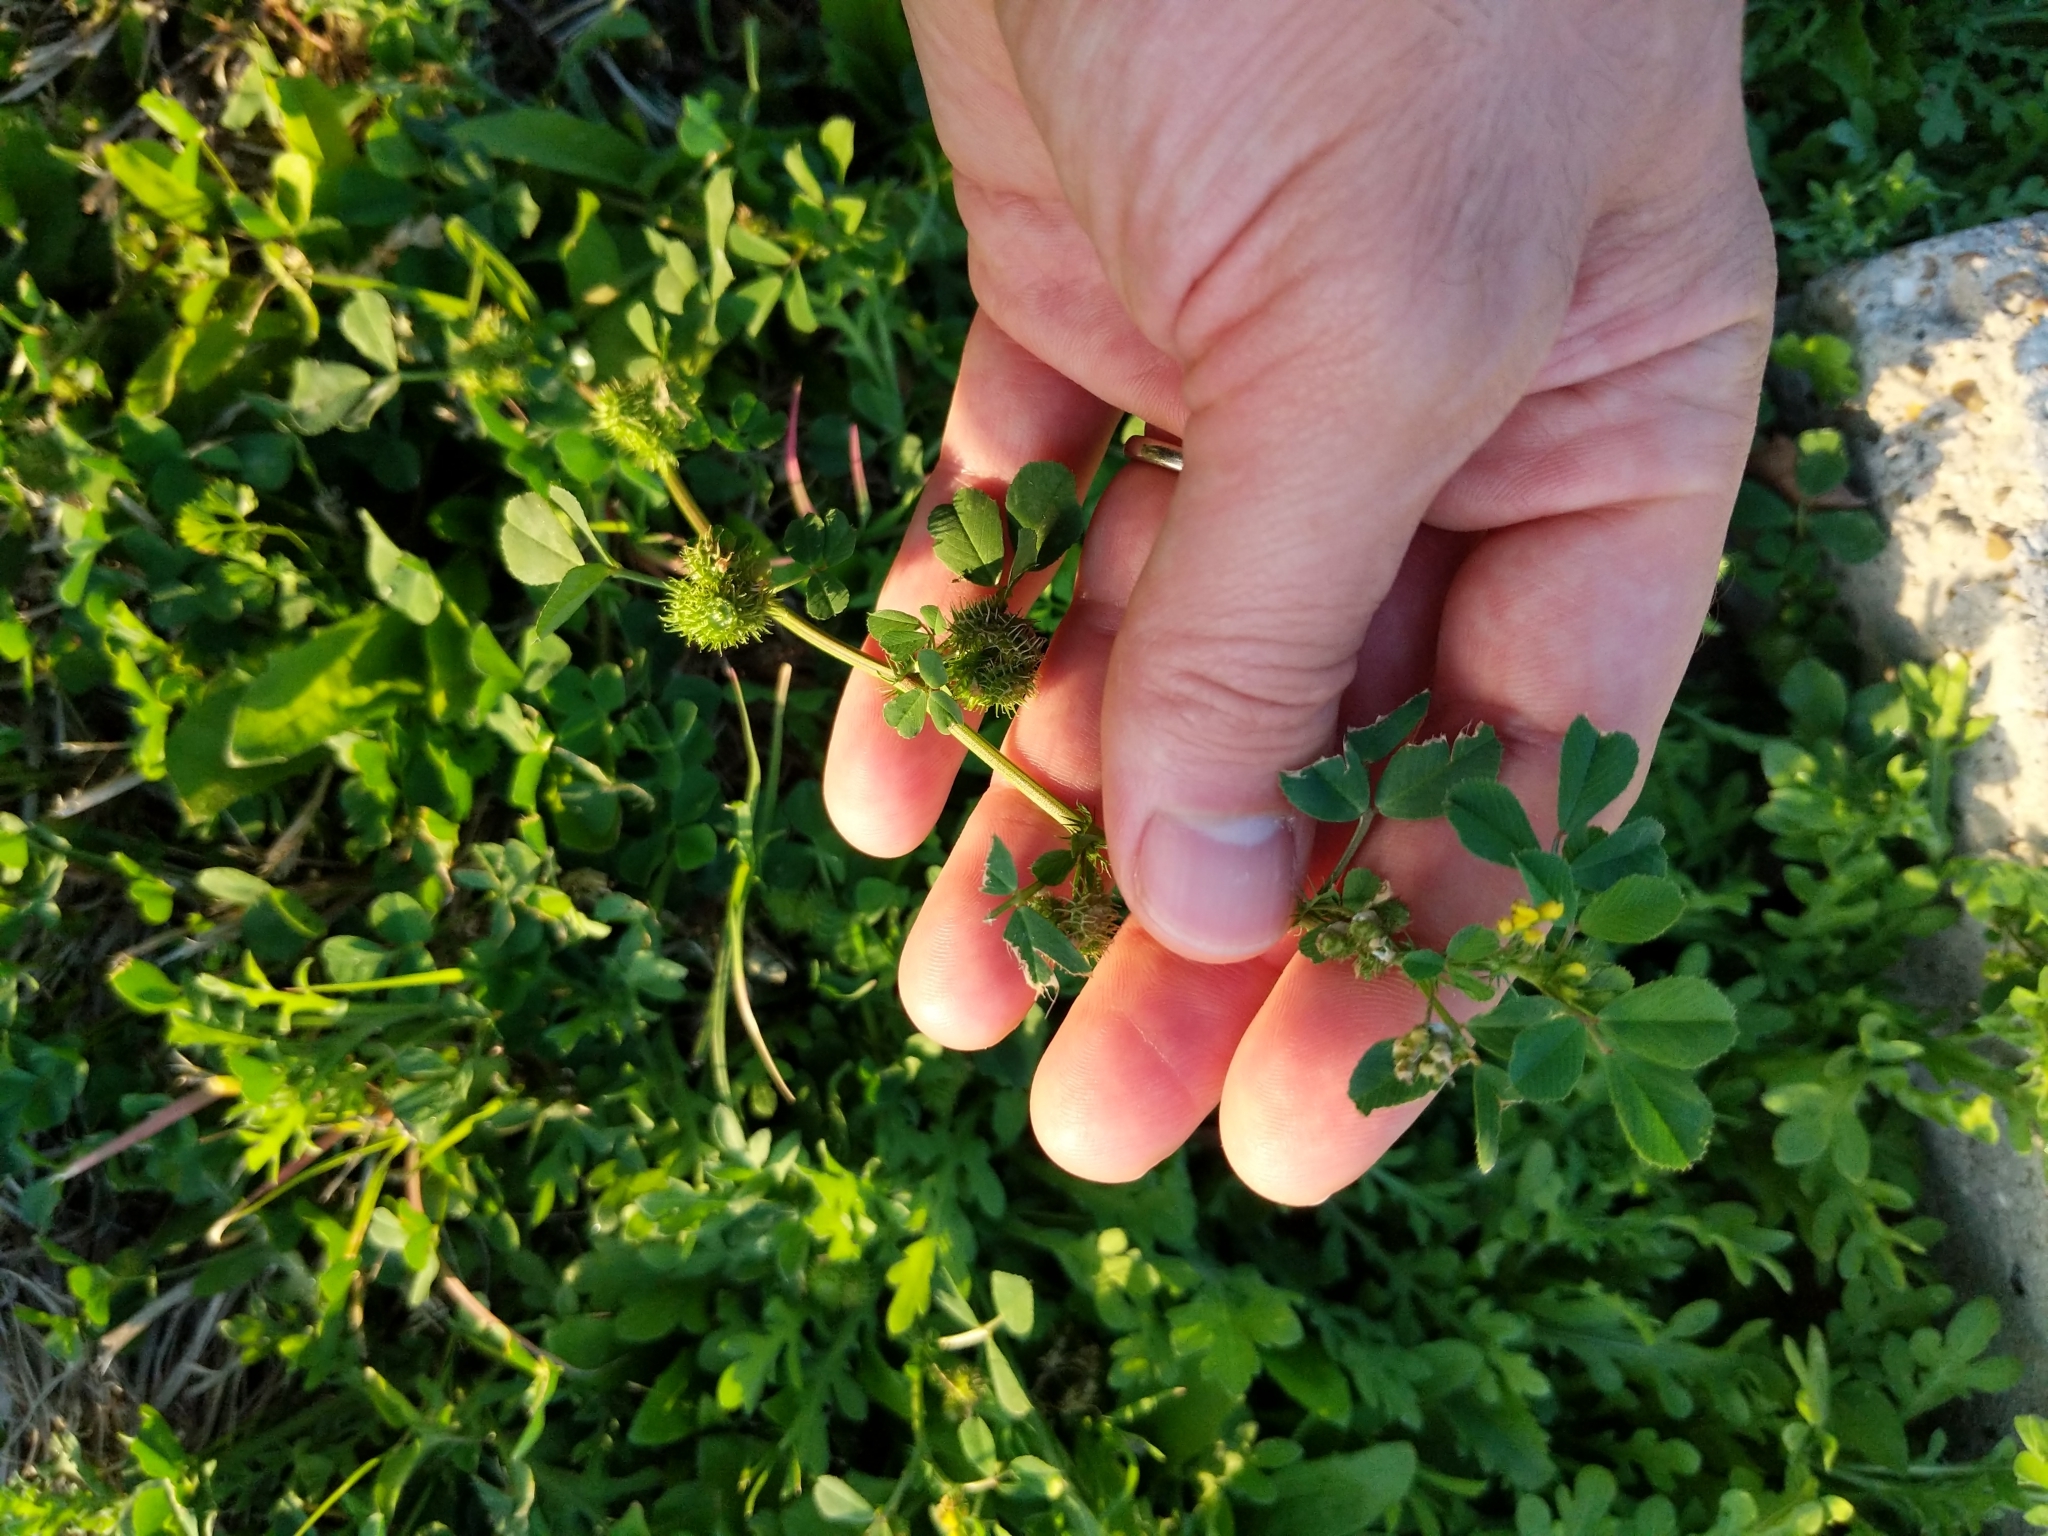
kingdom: Plantae
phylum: Tracheophyta
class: Magnoliopsida
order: Fabales
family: Fabaceae
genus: Medicago
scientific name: Medicago polymorpha
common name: Burclover
